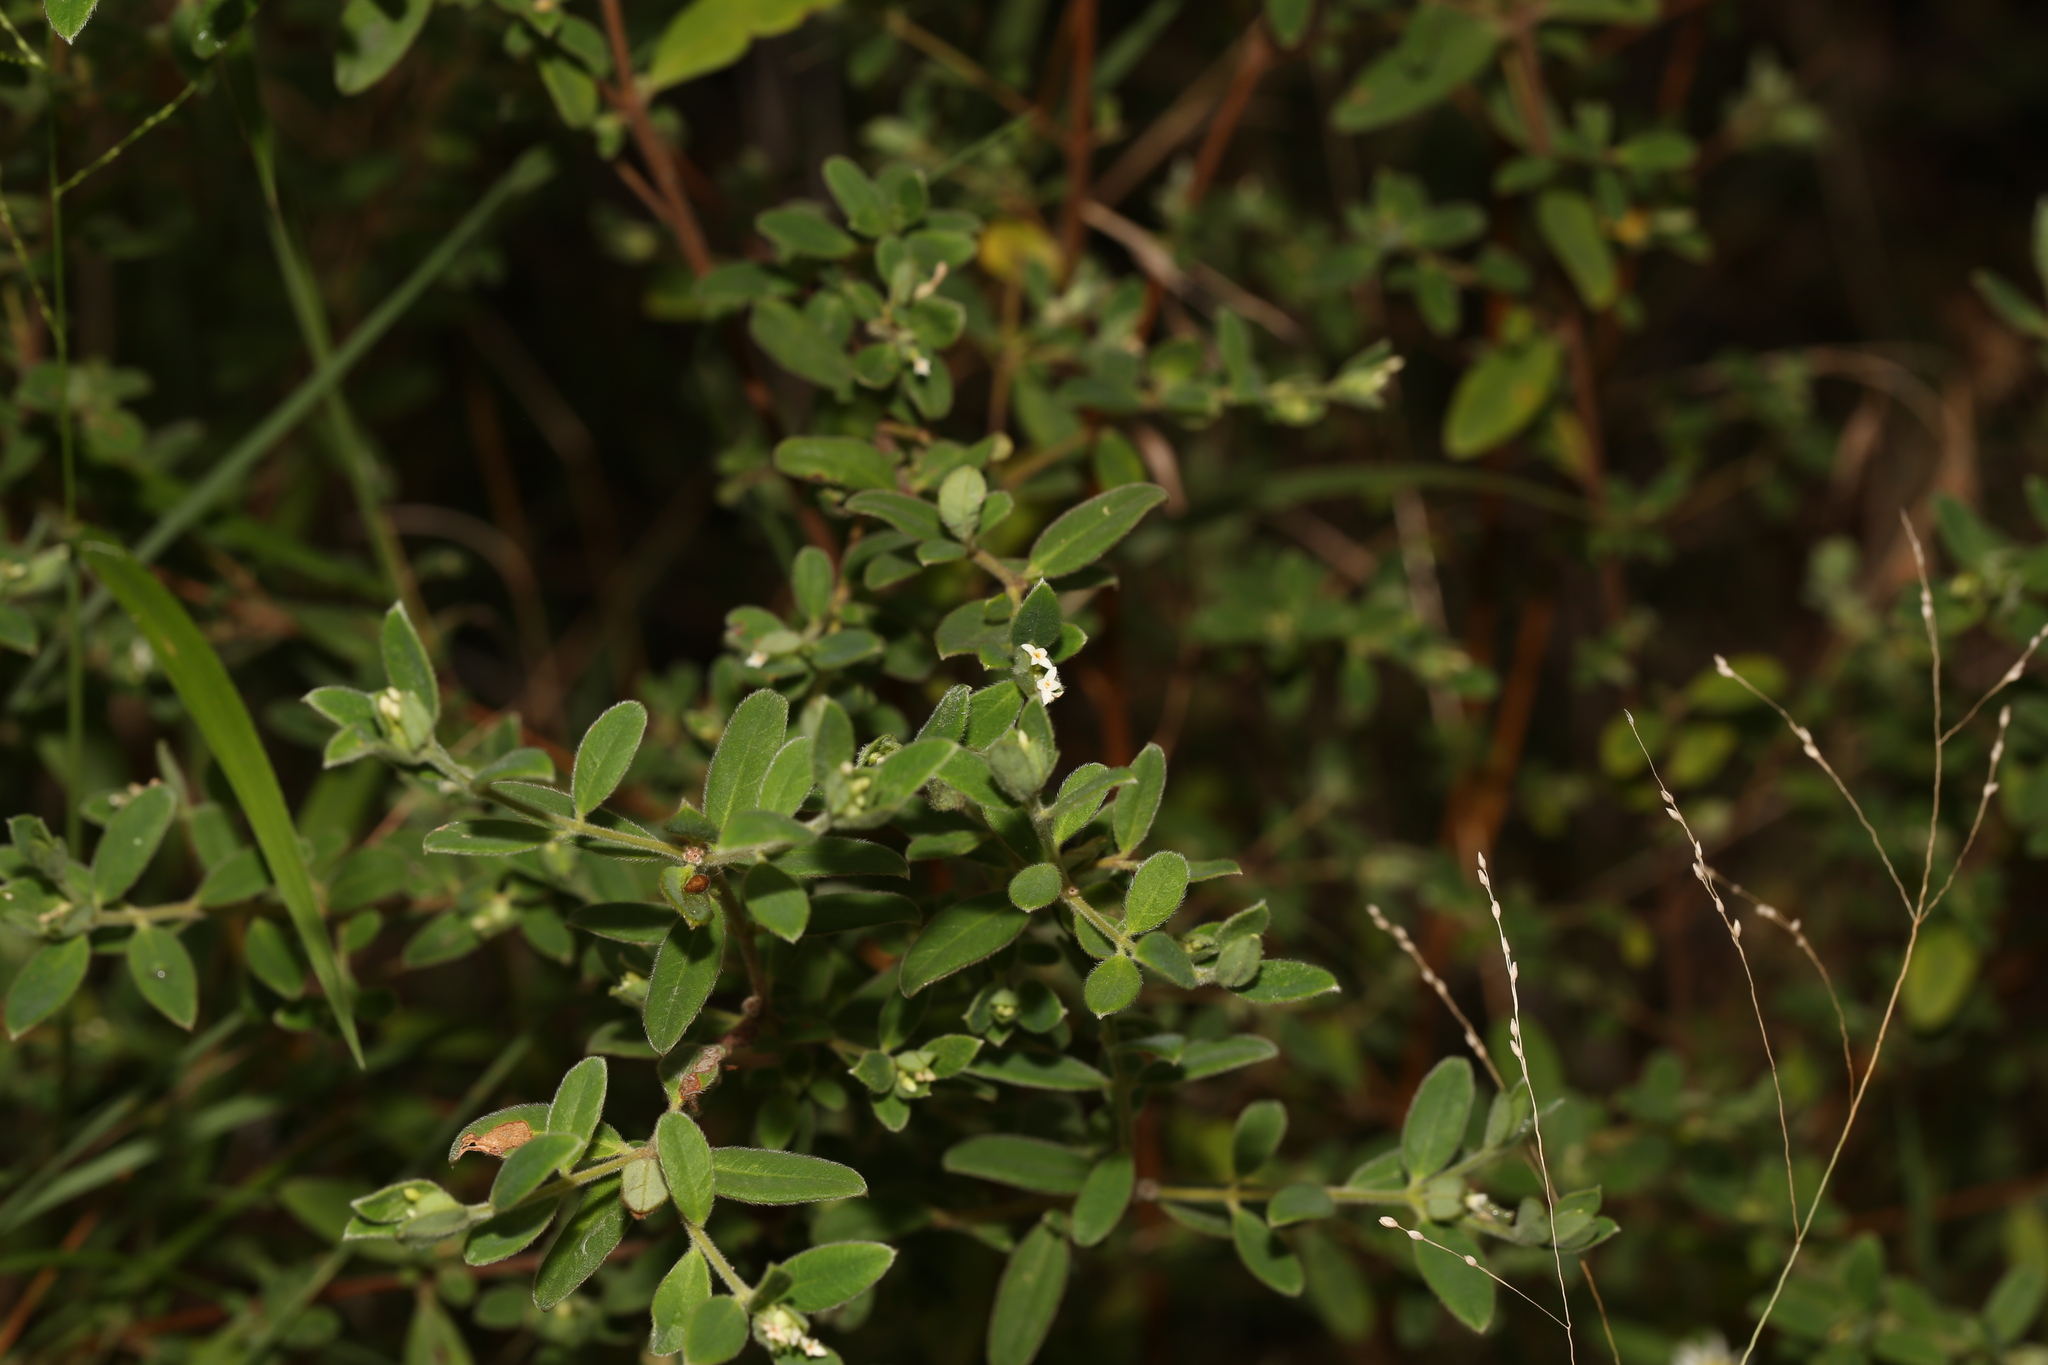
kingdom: Plantae
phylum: Tracheophyta
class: Magnoliopsida
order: Malvales
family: Thymelaeaceae
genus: Pimelea
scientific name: Pimelea altior
